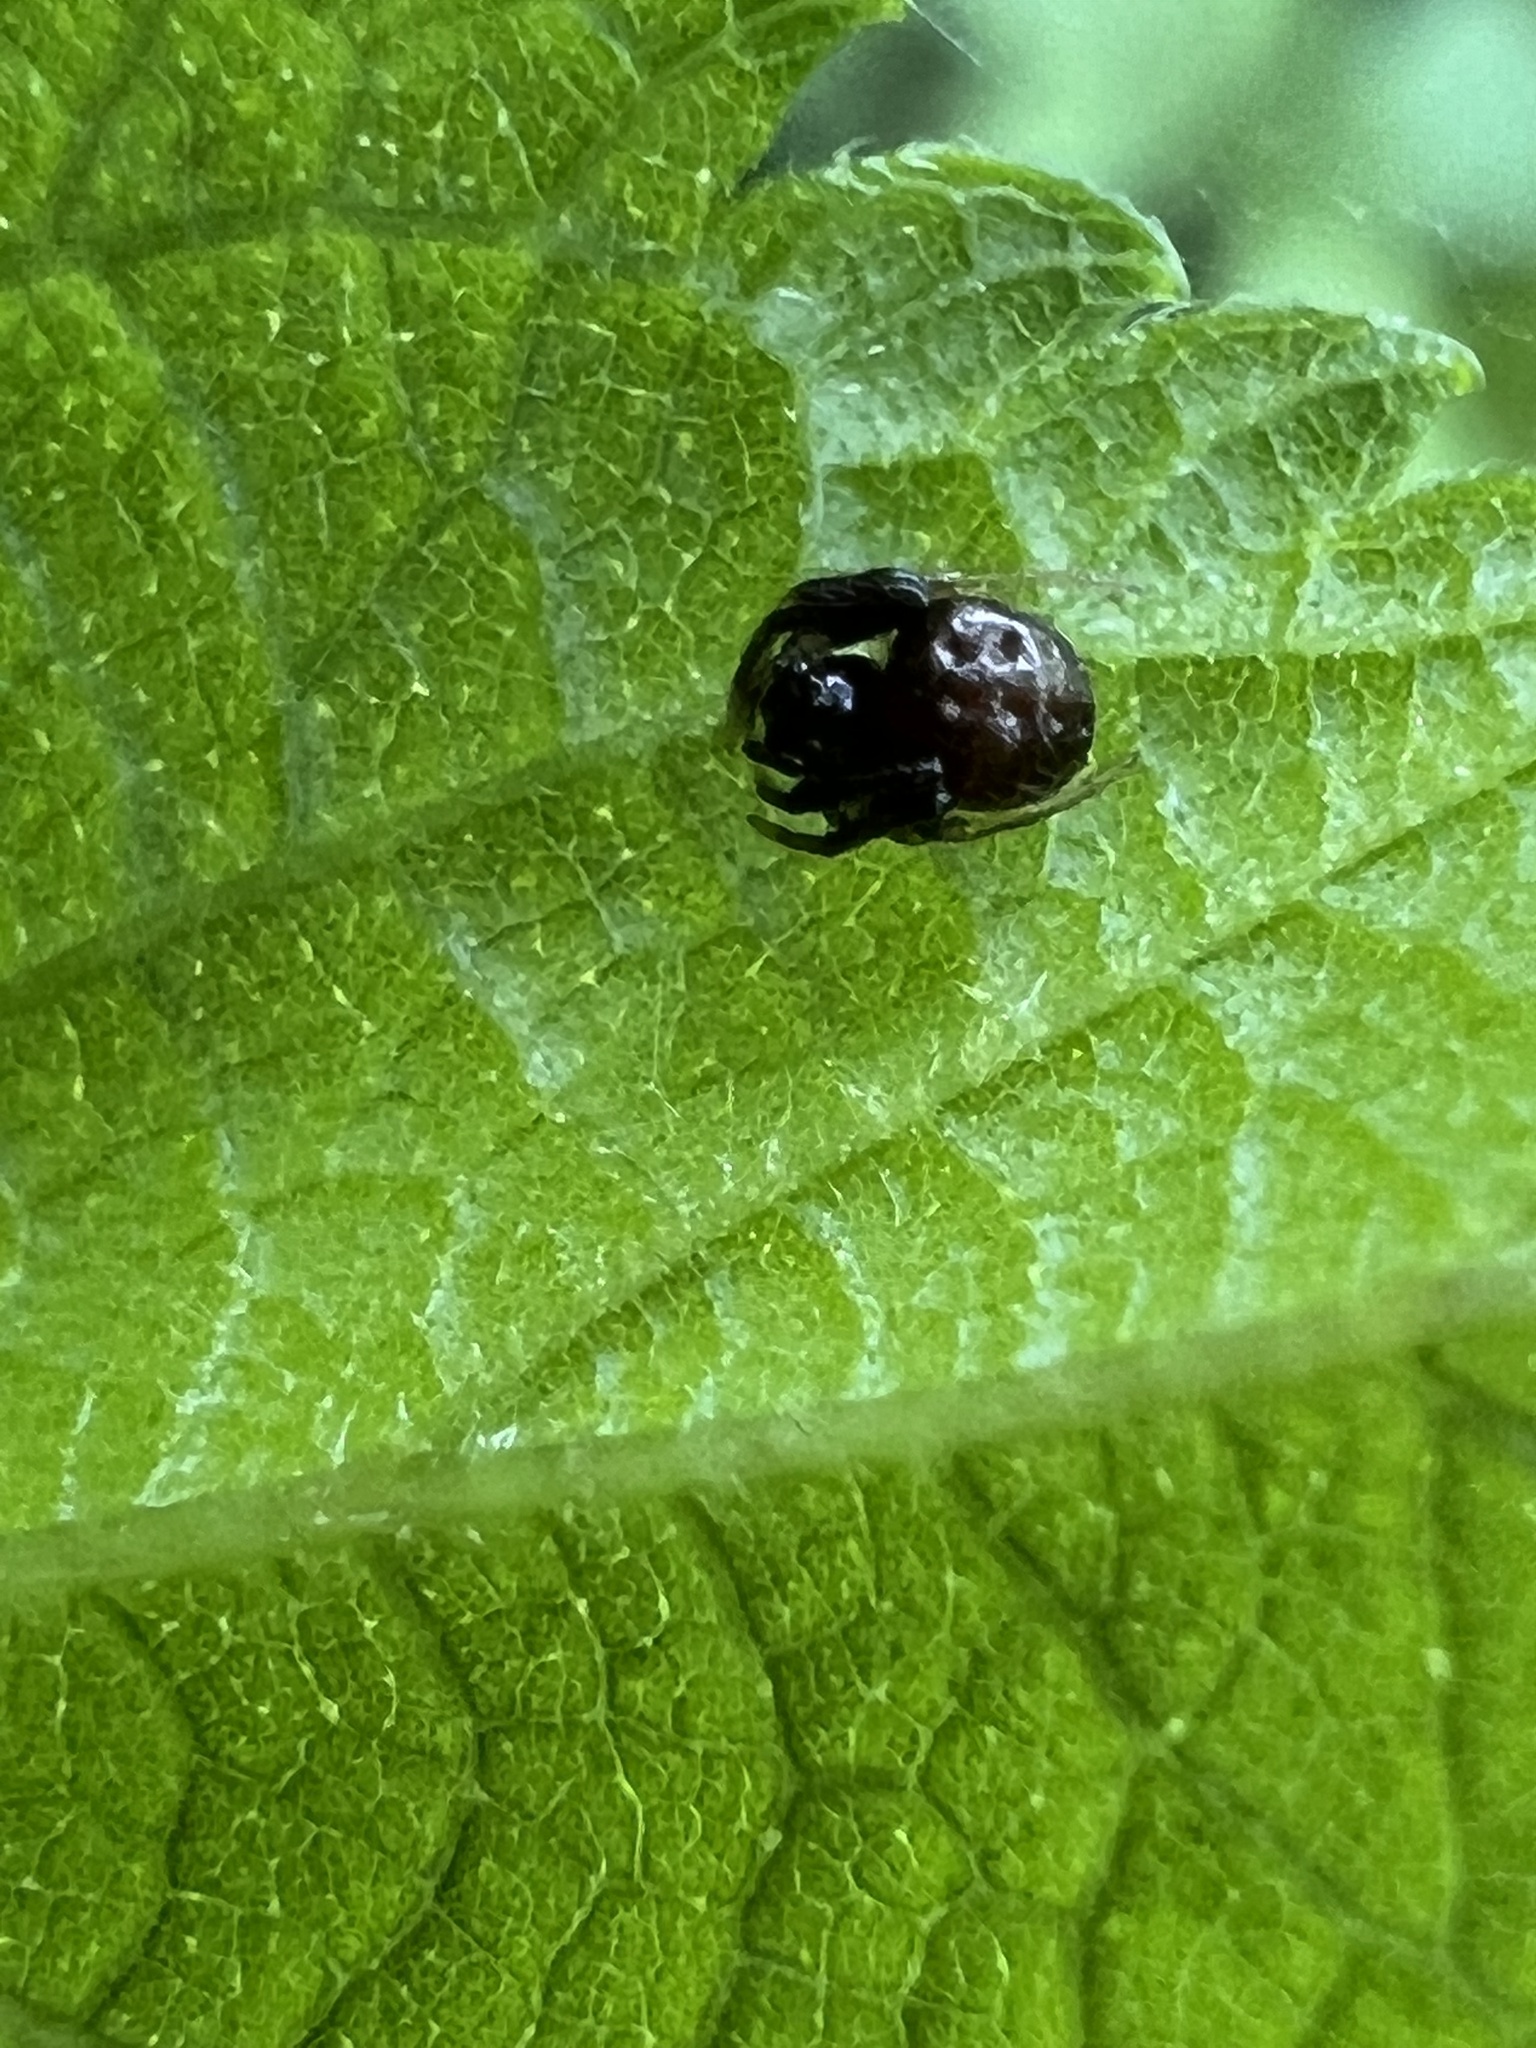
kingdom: Animalia
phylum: Arthropoda
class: Arachnida
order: Araneae
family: Araneidae
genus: Verrucosa
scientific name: Verrucosa arenata
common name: Orb weavers
